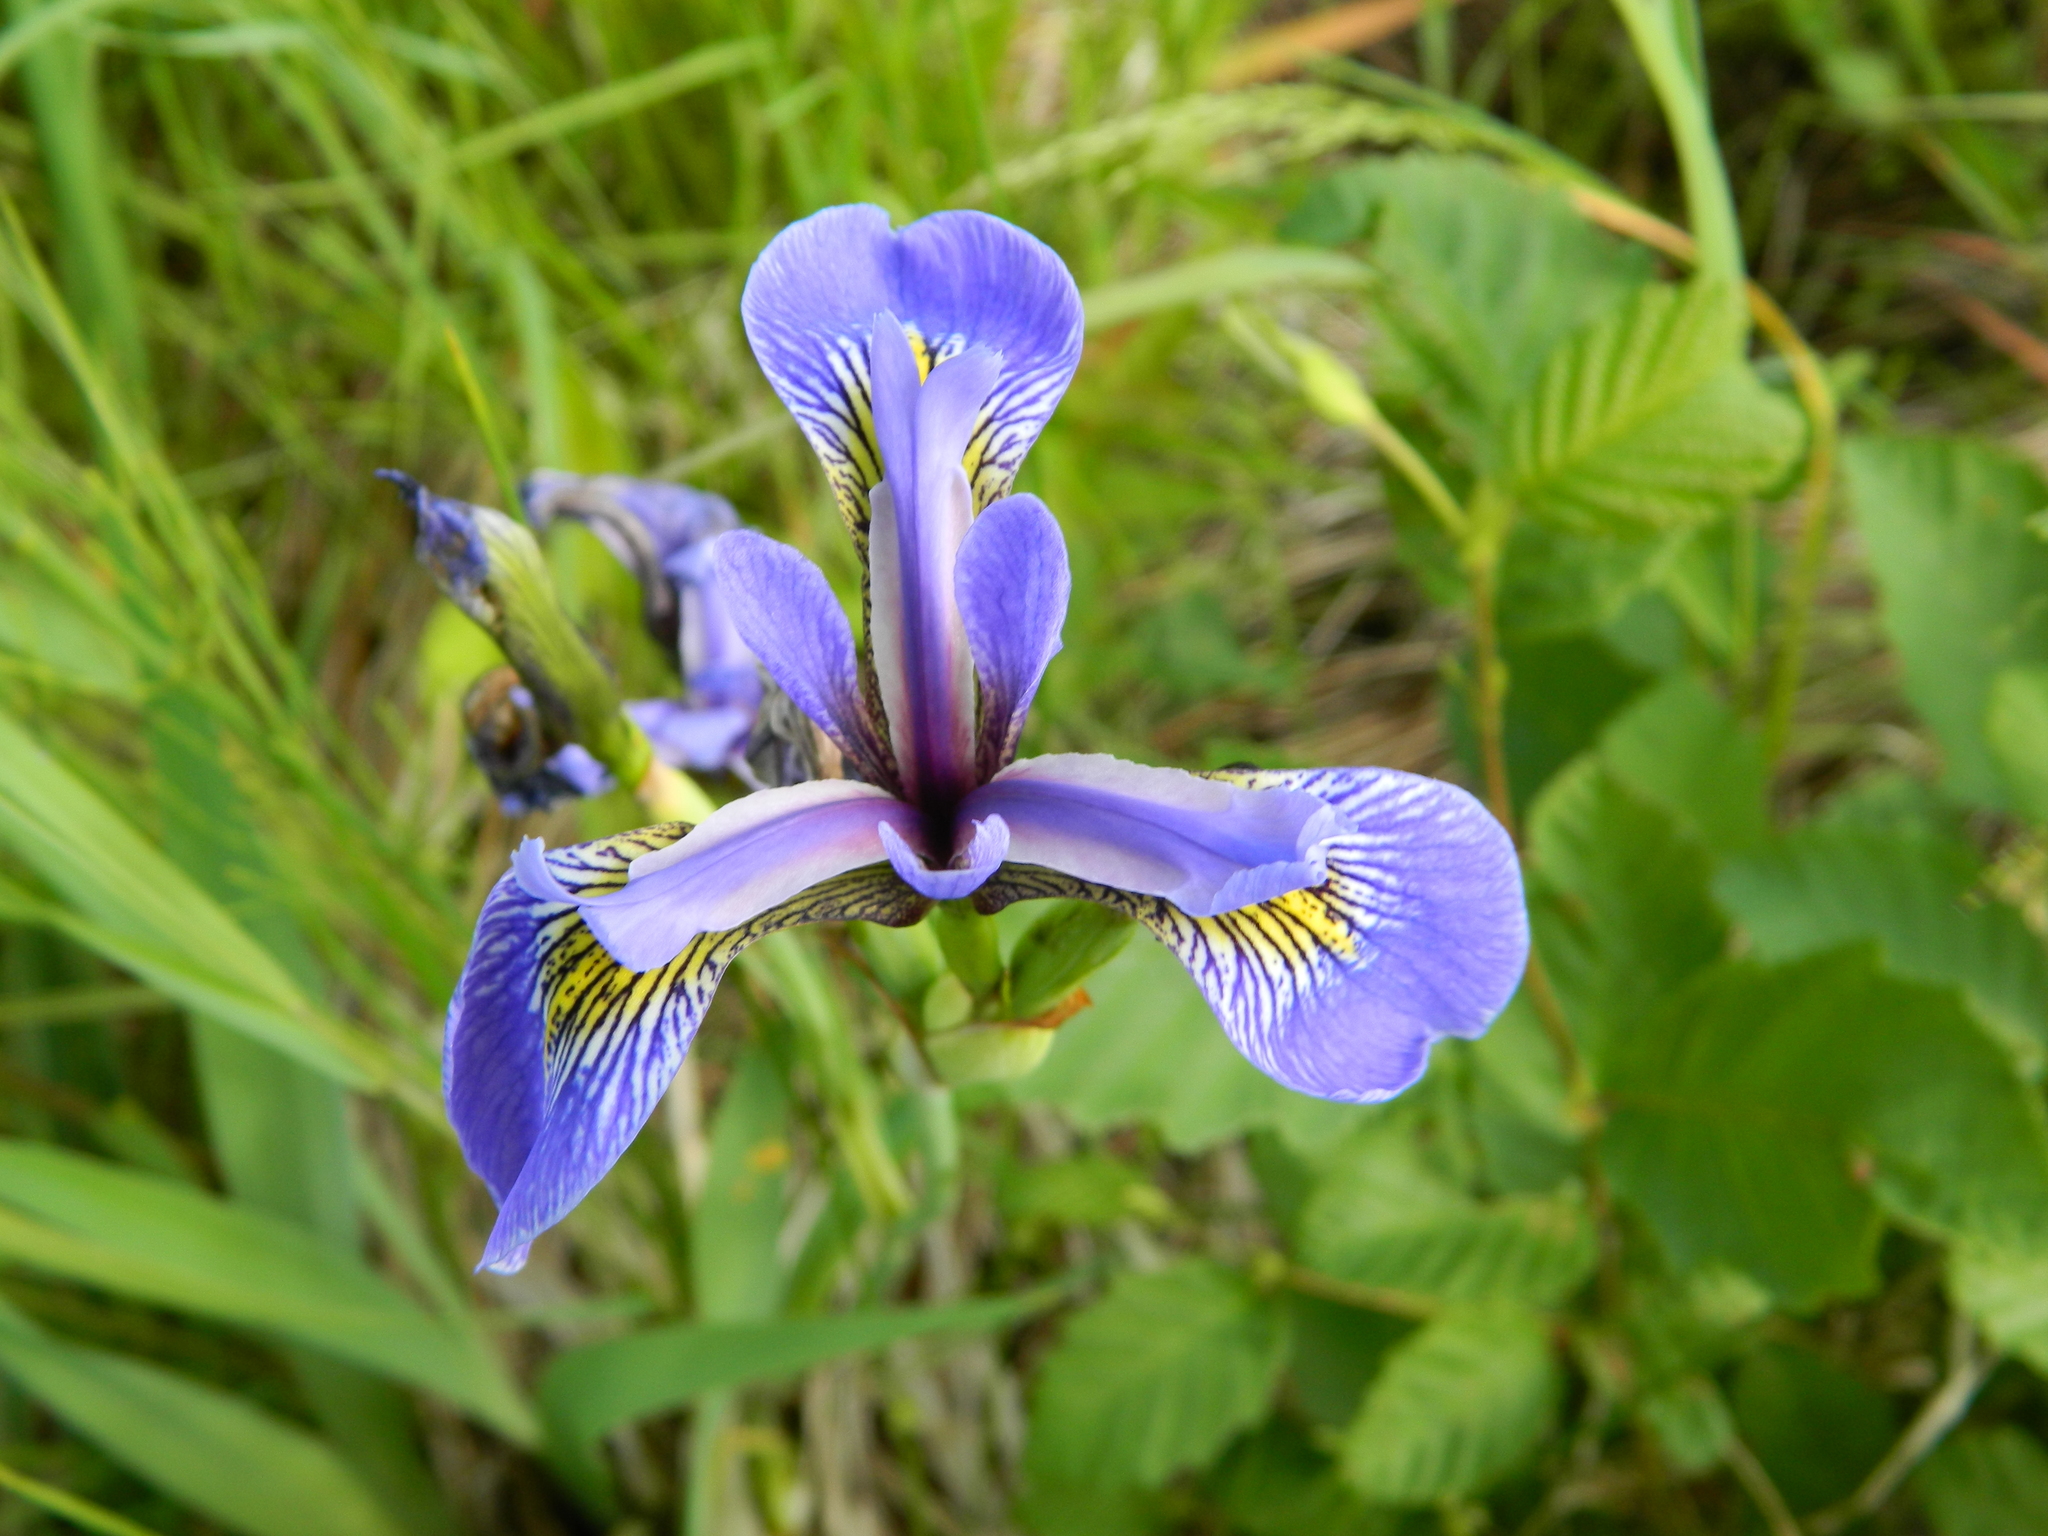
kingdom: Plantae
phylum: Tracheophyta
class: Liliopsida
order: Asparagales
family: Iridaceae
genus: Iris
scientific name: Iris versicolor
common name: Purple iris
